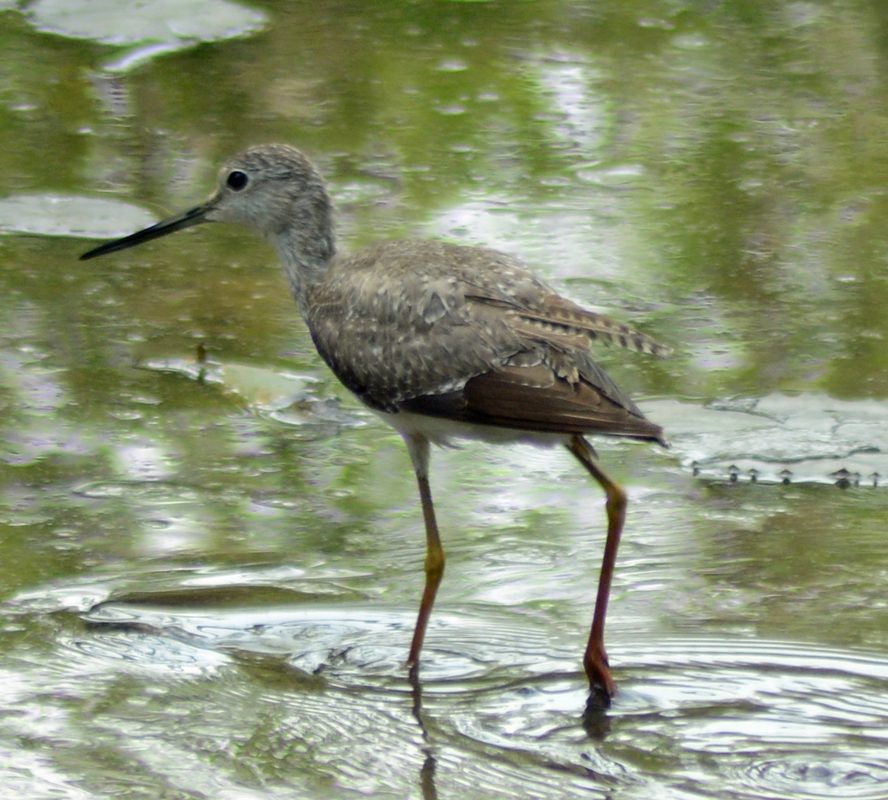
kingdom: Animalia
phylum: Chordata
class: Aves
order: Charadriiformes
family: Scolopacidae
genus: Tringa
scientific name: Tringa melanoleuca
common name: Greater yellowlegs
